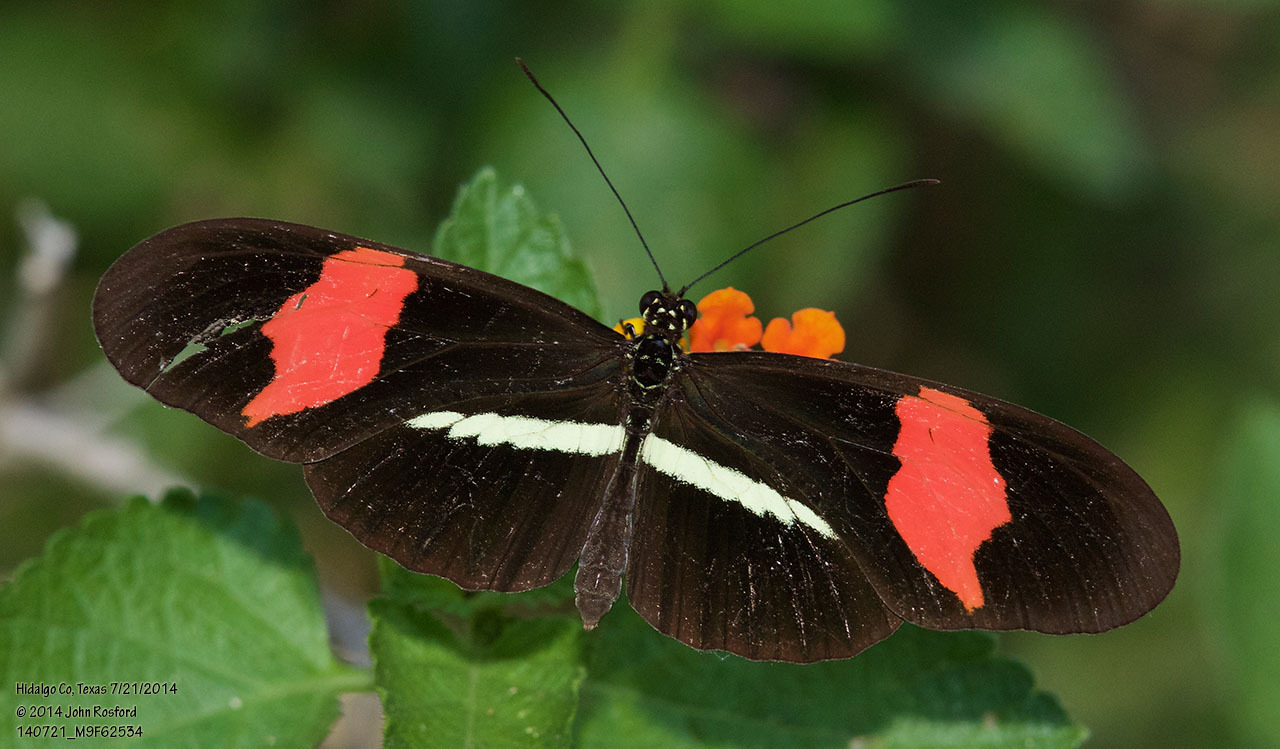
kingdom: Animalia
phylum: Arthropoda
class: Insecta
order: Lepidoptera
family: Nymphalidae
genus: Tirumala
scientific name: Tirumala petiverana
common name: Blue monarch
